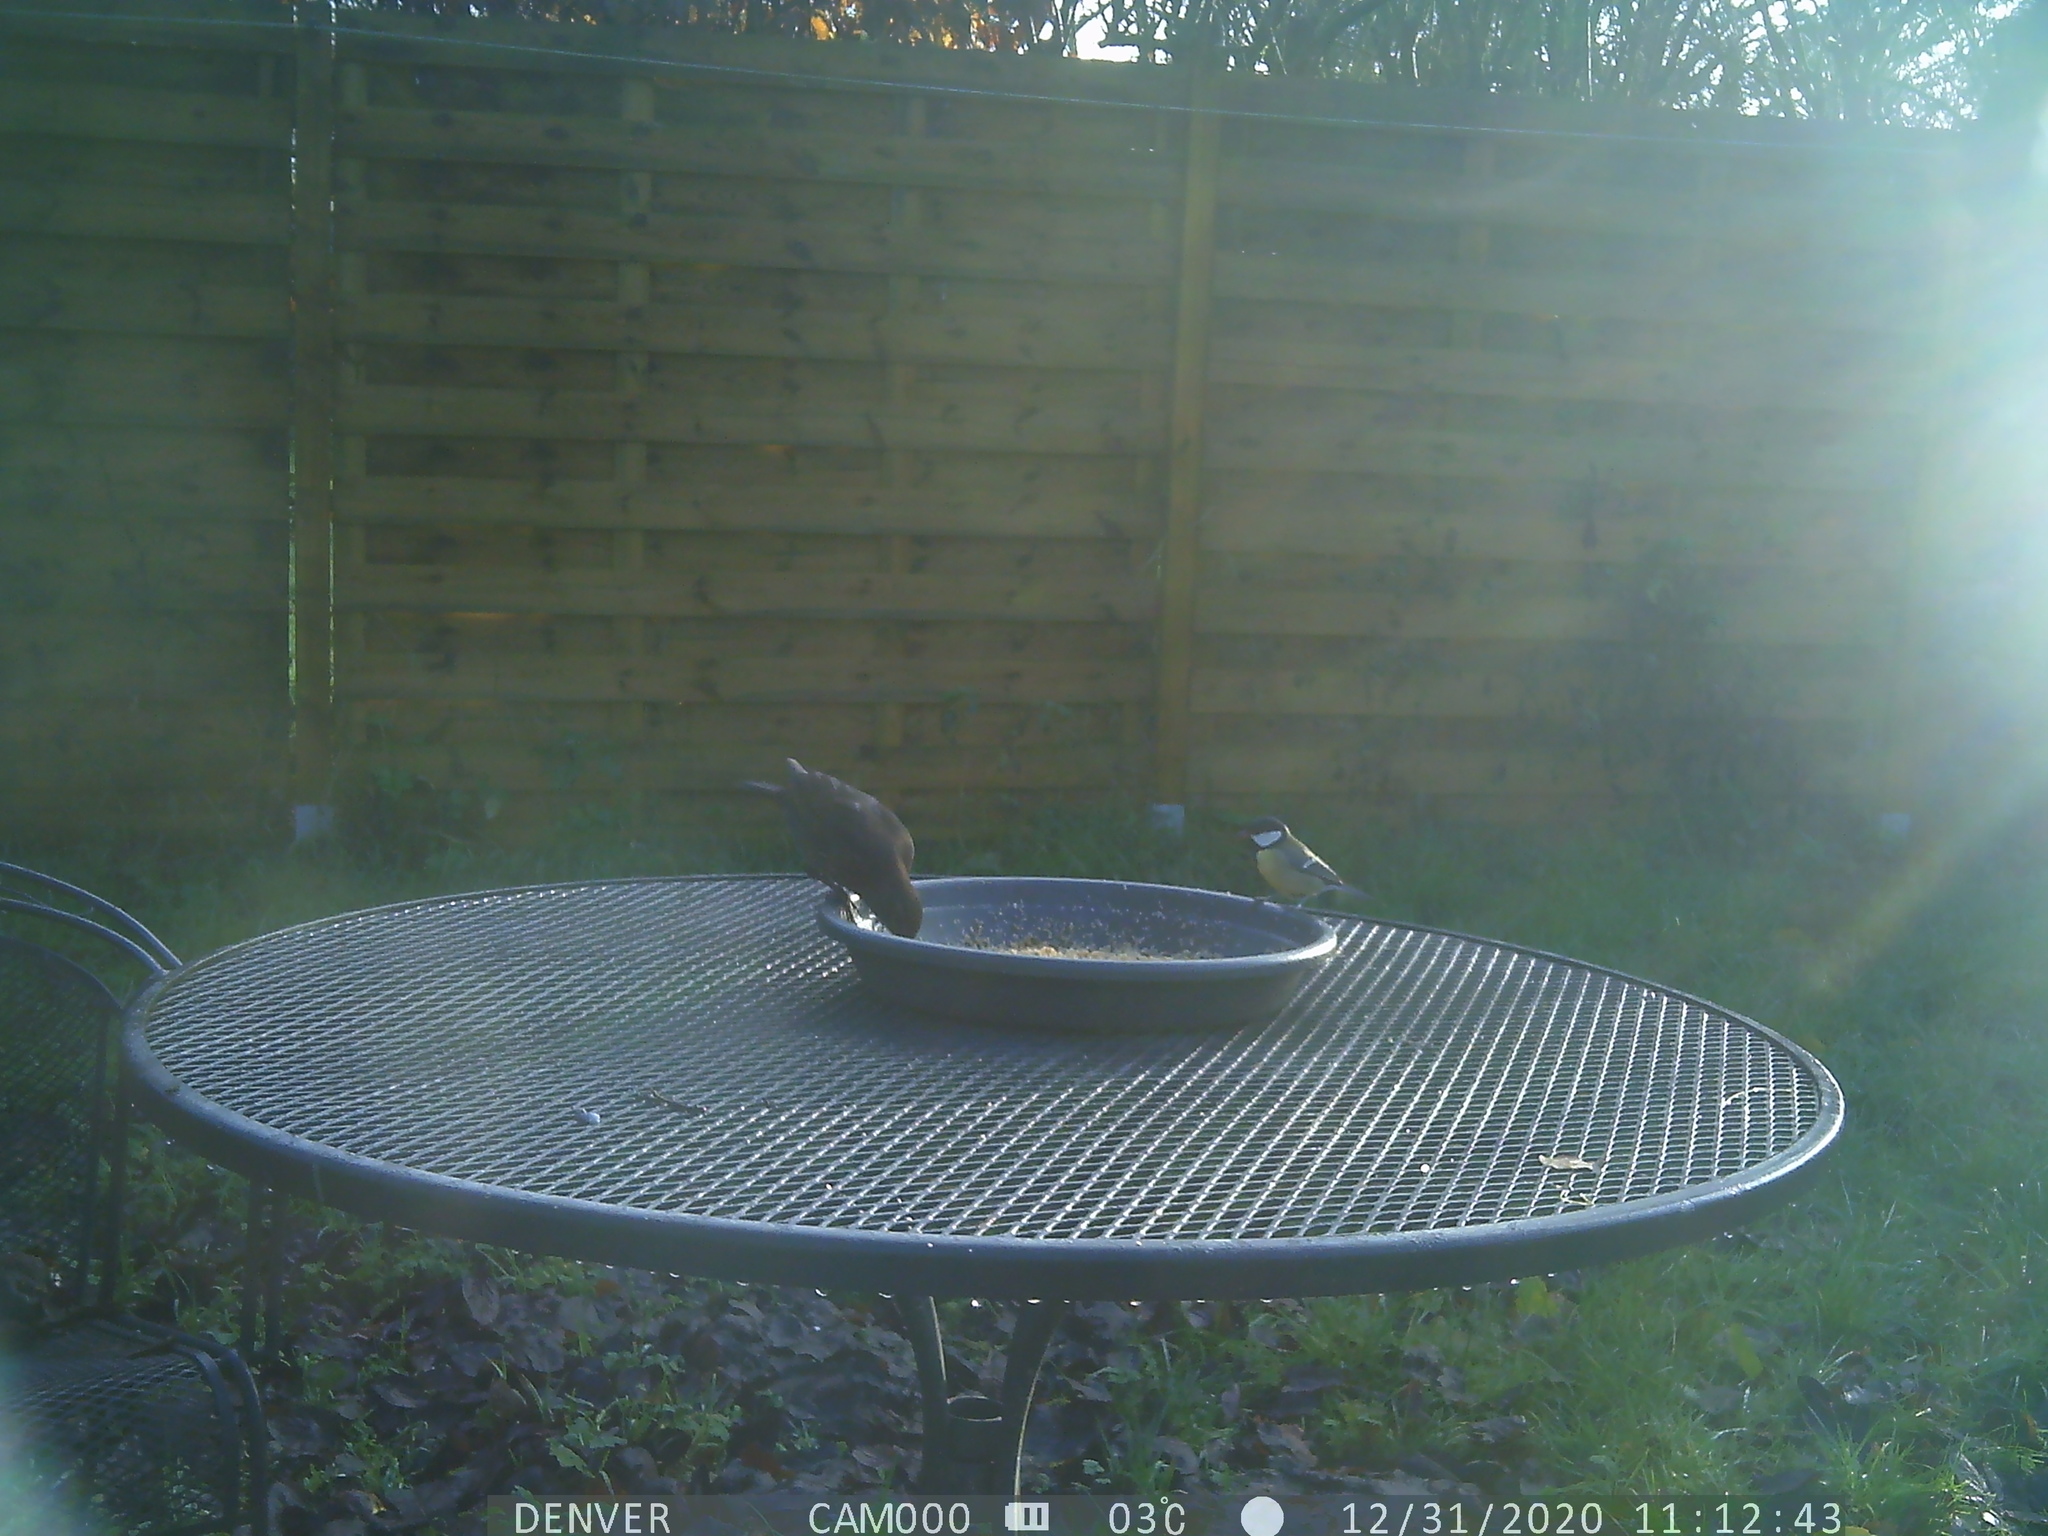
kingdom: Animalia
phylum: Chordata
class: Aves
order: Passeriformes
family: Paridae
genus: Parus
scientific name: Parus major
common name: Great tit
